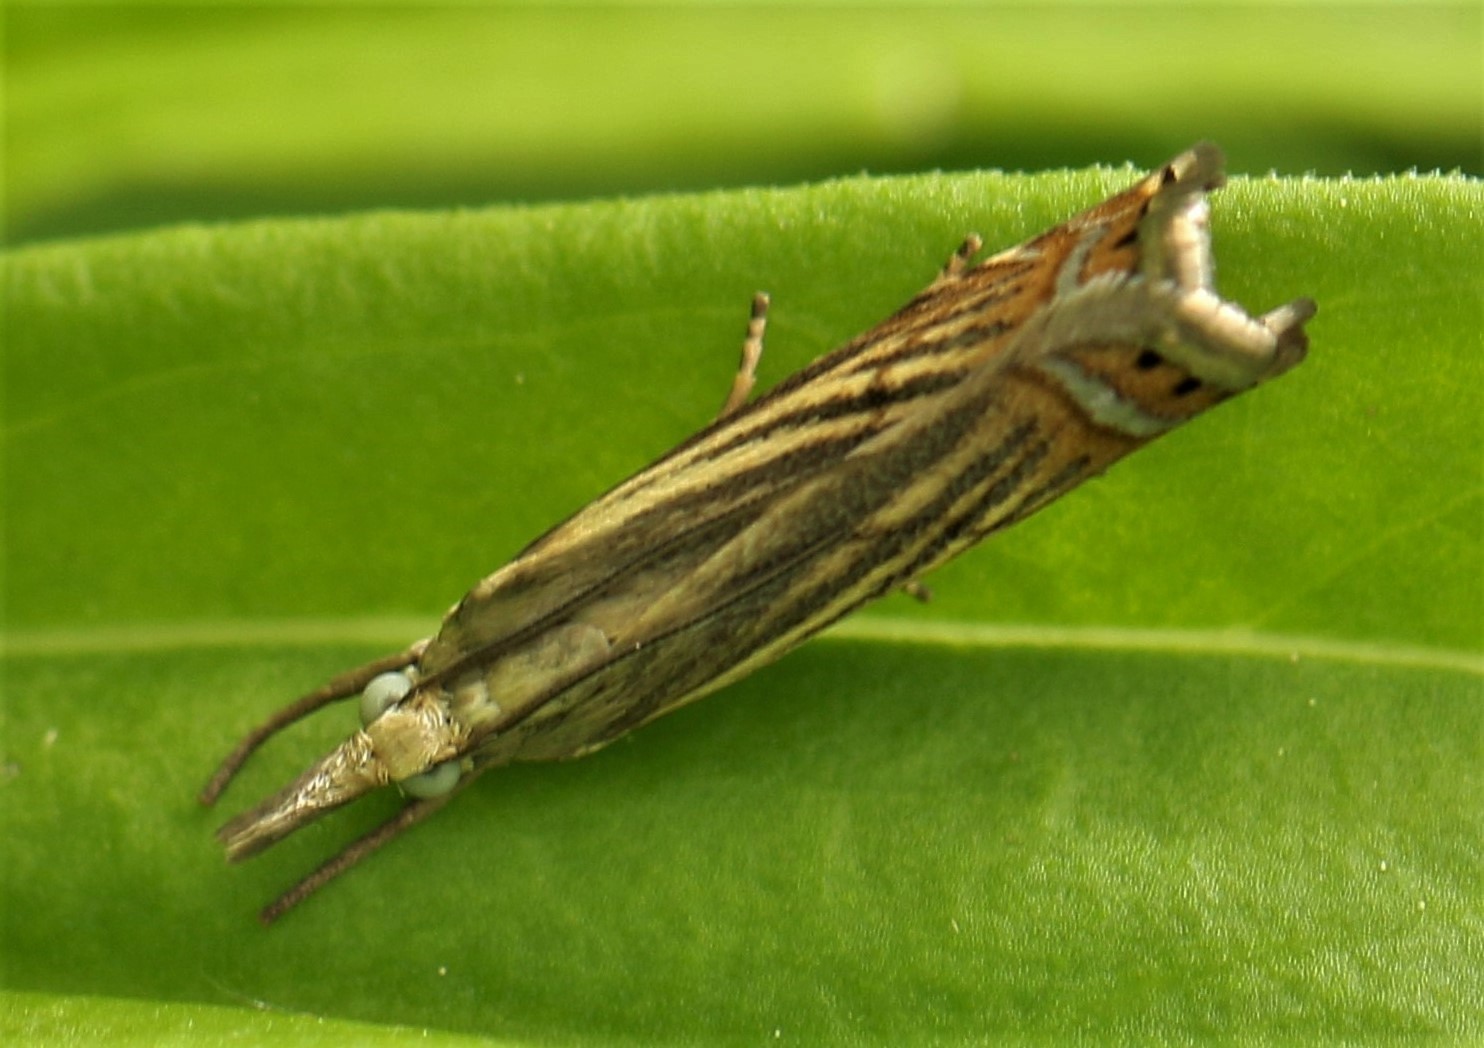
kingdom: Animalia
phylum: Arthropoda
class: Insecta
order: Lepidoptera
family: Crambidae
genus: Chrysoteuchia
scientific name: Chrysoteuchia topiarius
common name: Topiary grass-veneer
